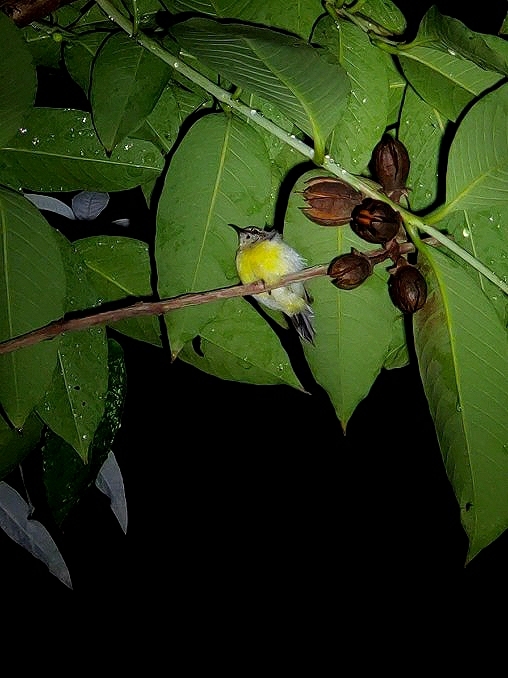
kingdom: Animalia
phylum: Chordata
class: Aves
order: Passeriformes
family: Nectariniidae
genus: Leptocoma
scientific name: Leptocoma zeylonica
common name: Purple-rumped sunbird
